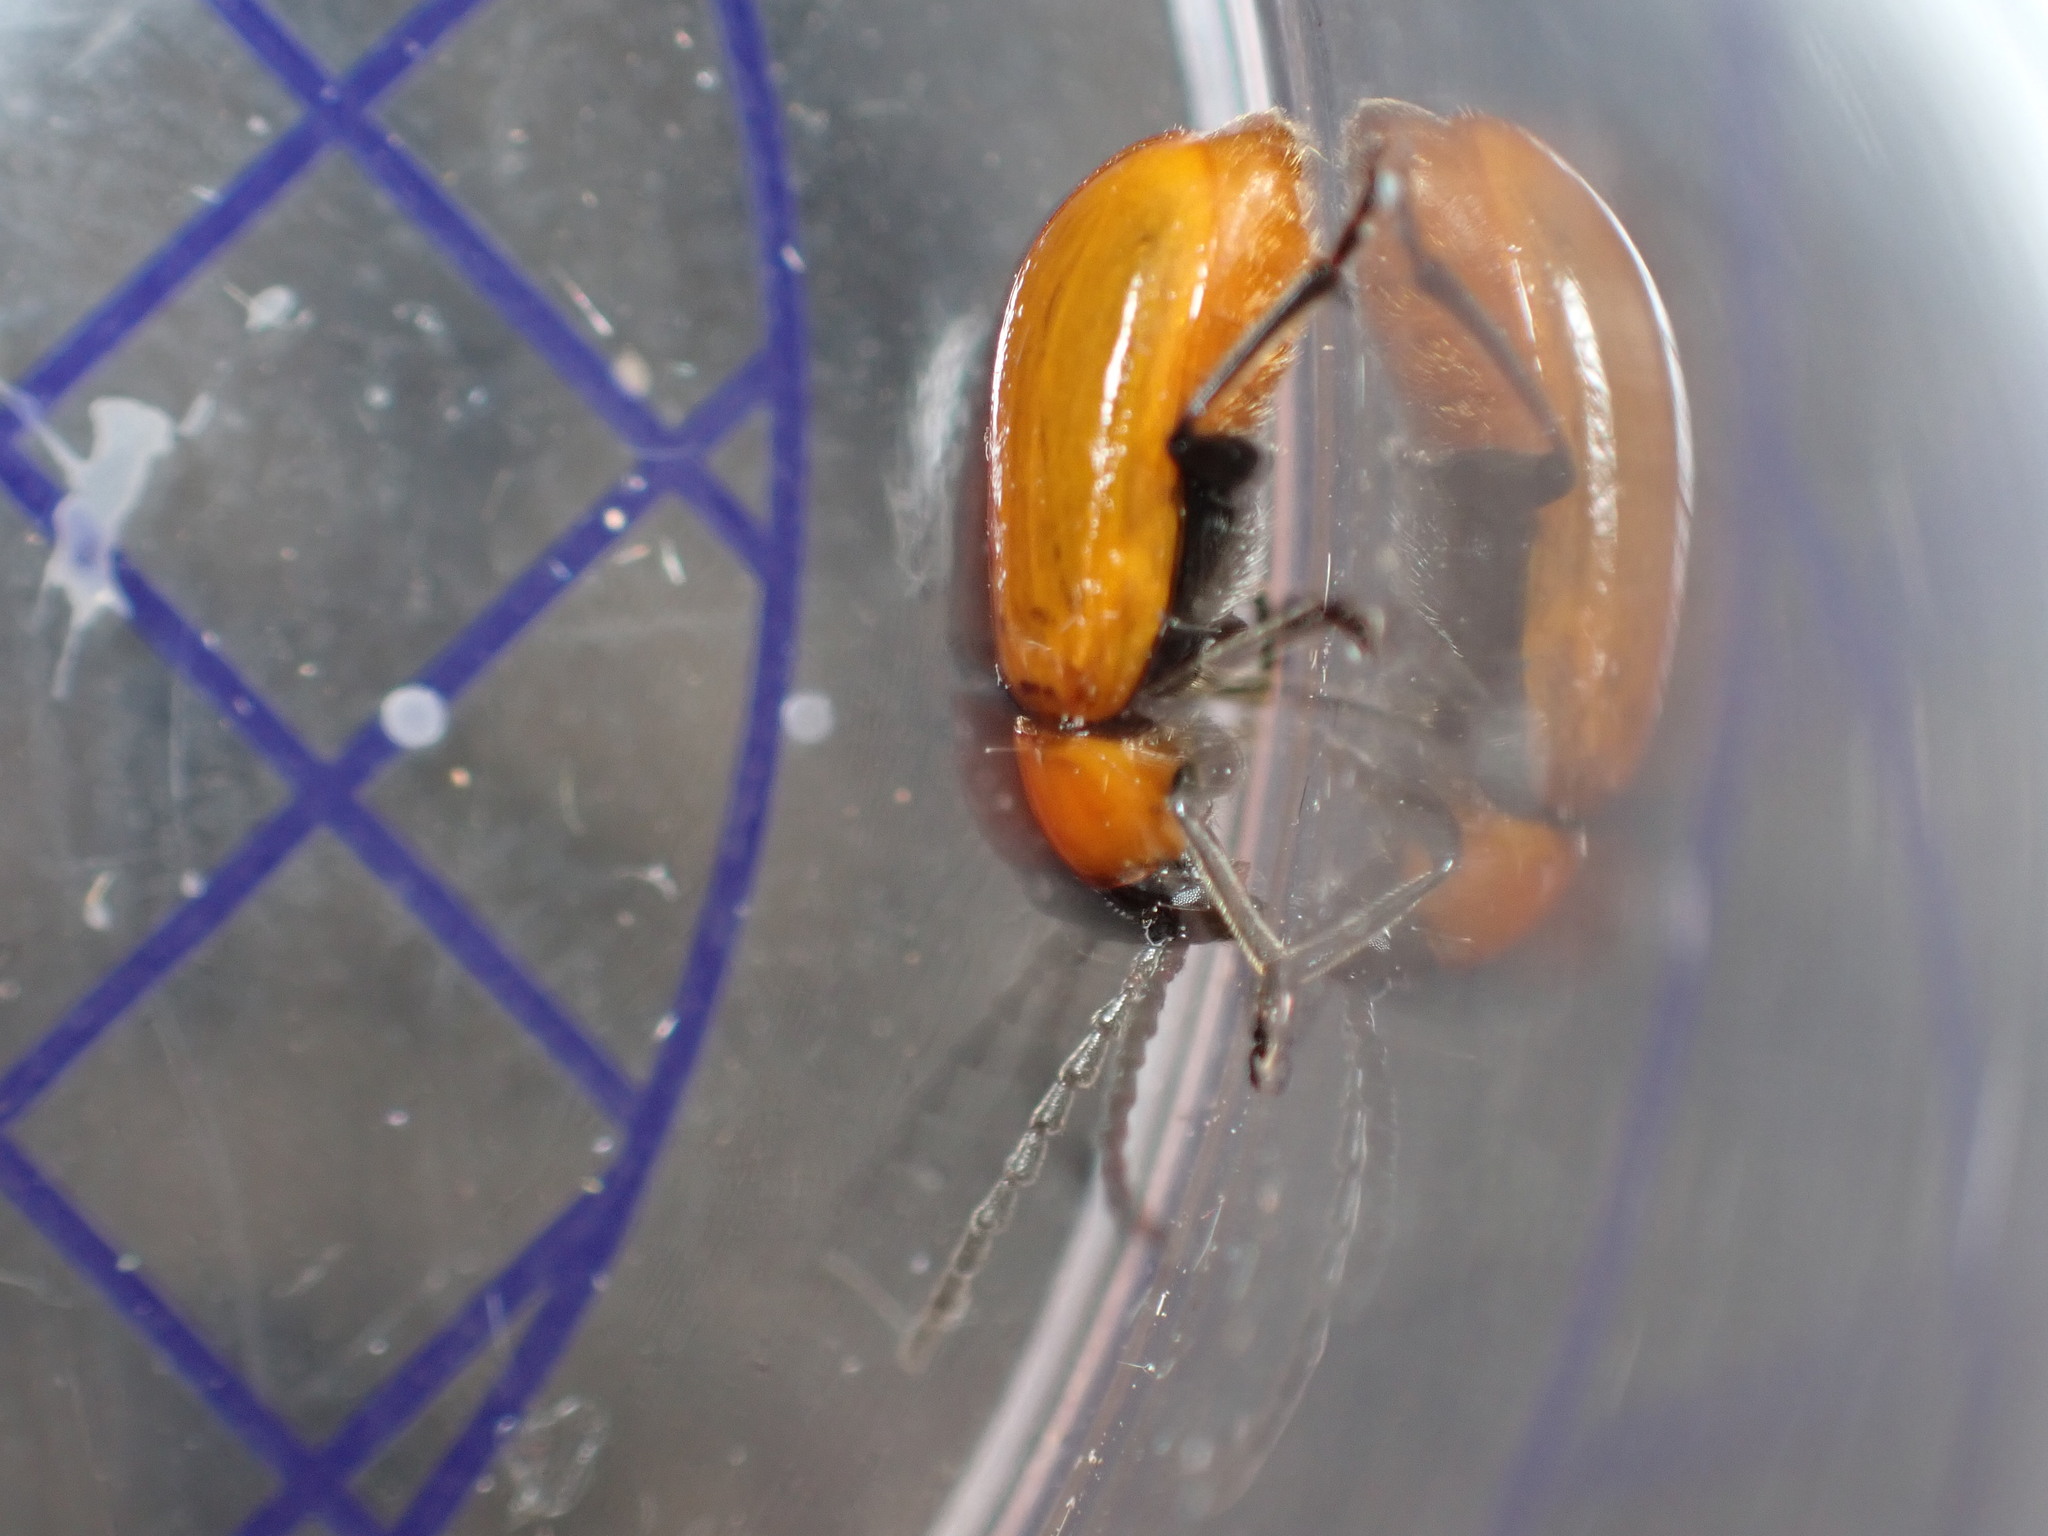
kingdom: Animalia
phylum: Arthropoda
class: Insecta
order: Coleoptera
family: Chrysomelidae
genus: Exosoma
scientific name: Exosoma lusitanicum
